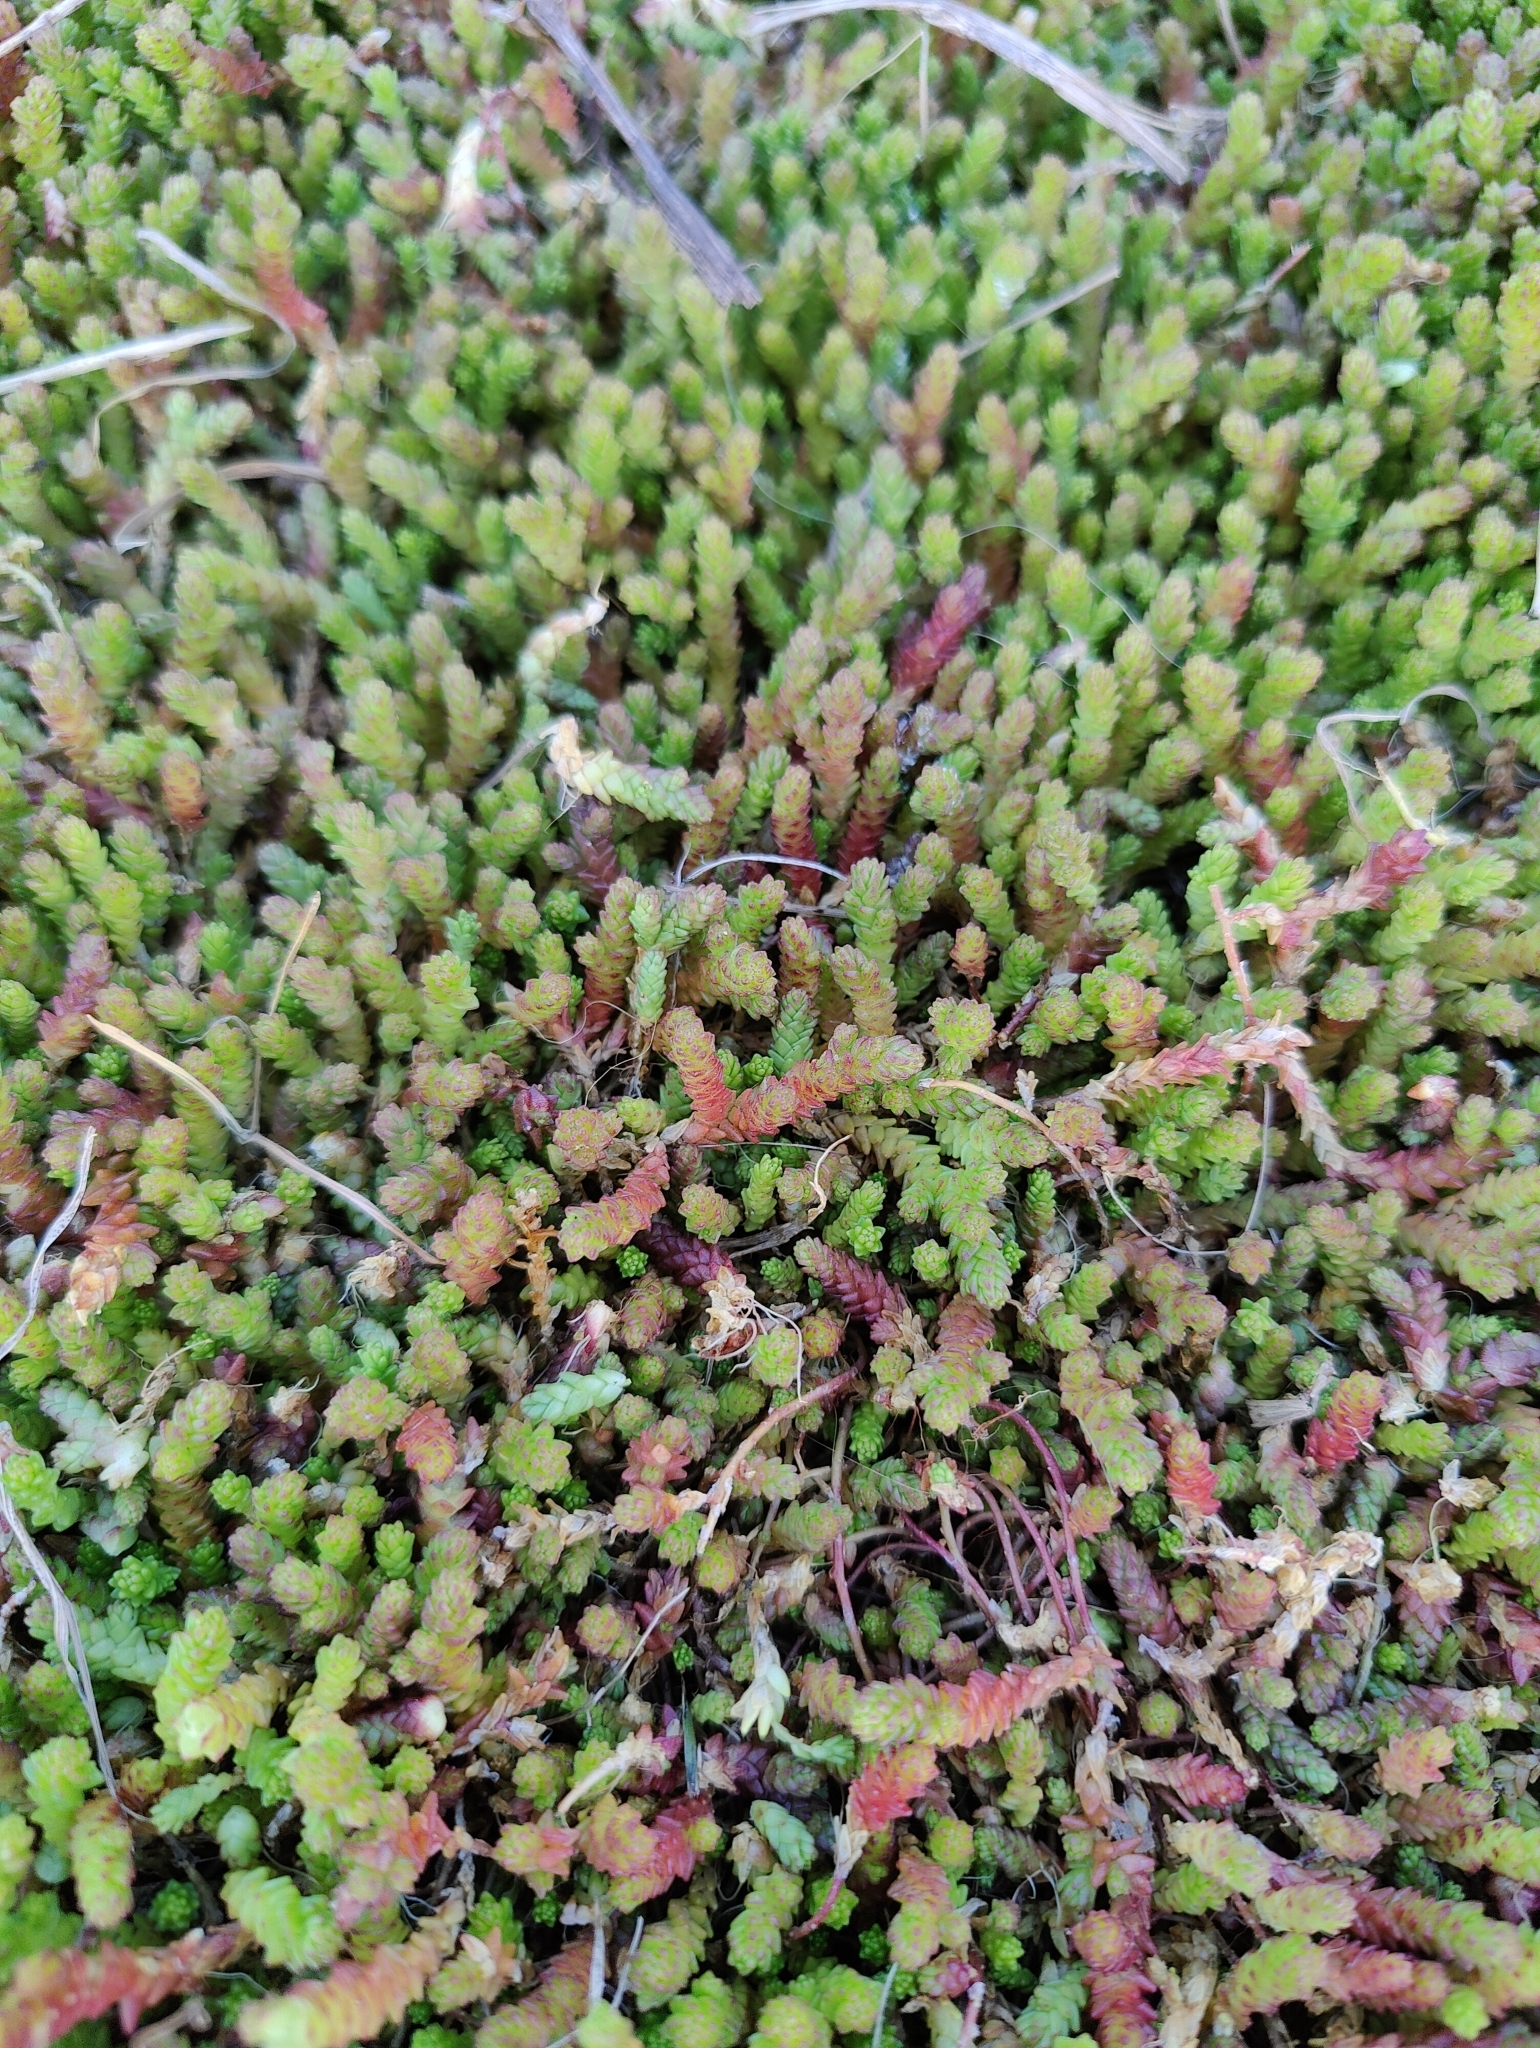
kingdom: Plantae
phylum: Tracheophyta
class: Magnoliopsida
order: Saxifragales
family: Crassulaceae
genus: Sedum
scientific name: Sedum acre
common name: Biting stonecrop
